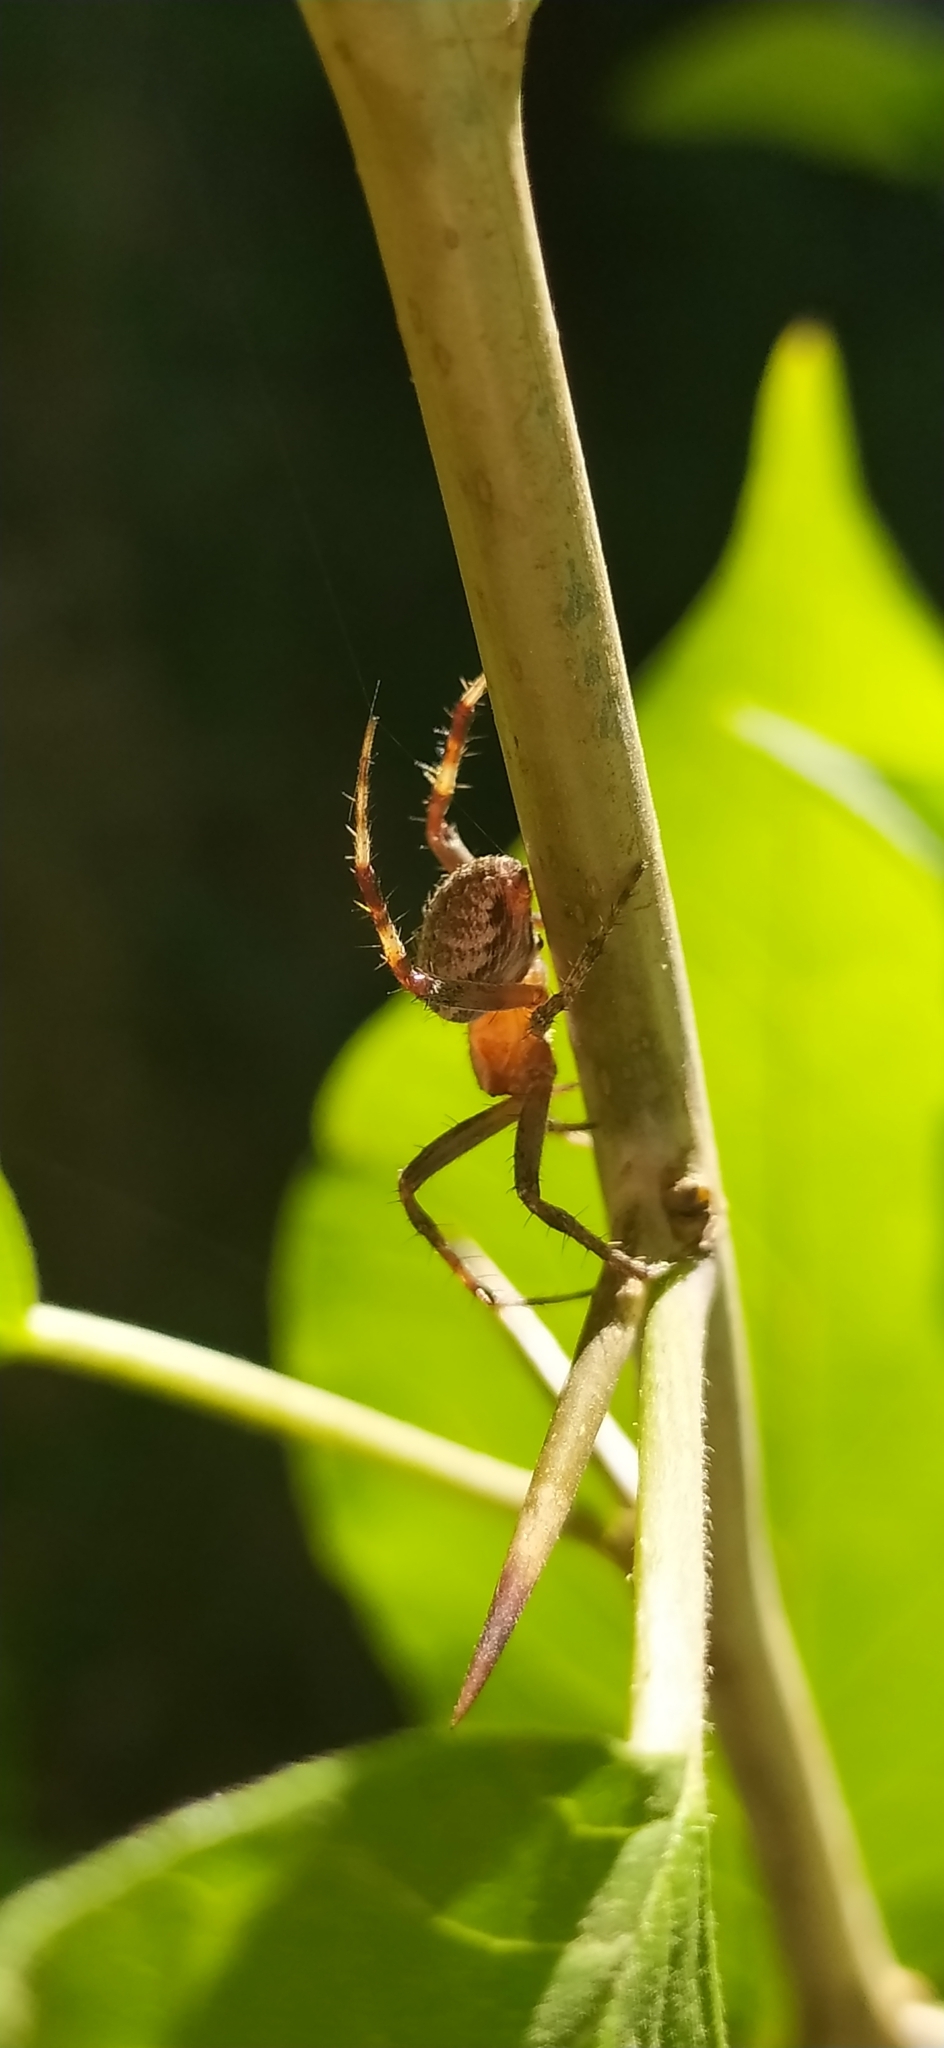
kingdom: Animalia
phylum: Arthropoda
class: Arachnida
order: Araneae
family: Araneidae
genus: Neoscona
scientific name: Neoscona spasskyi
